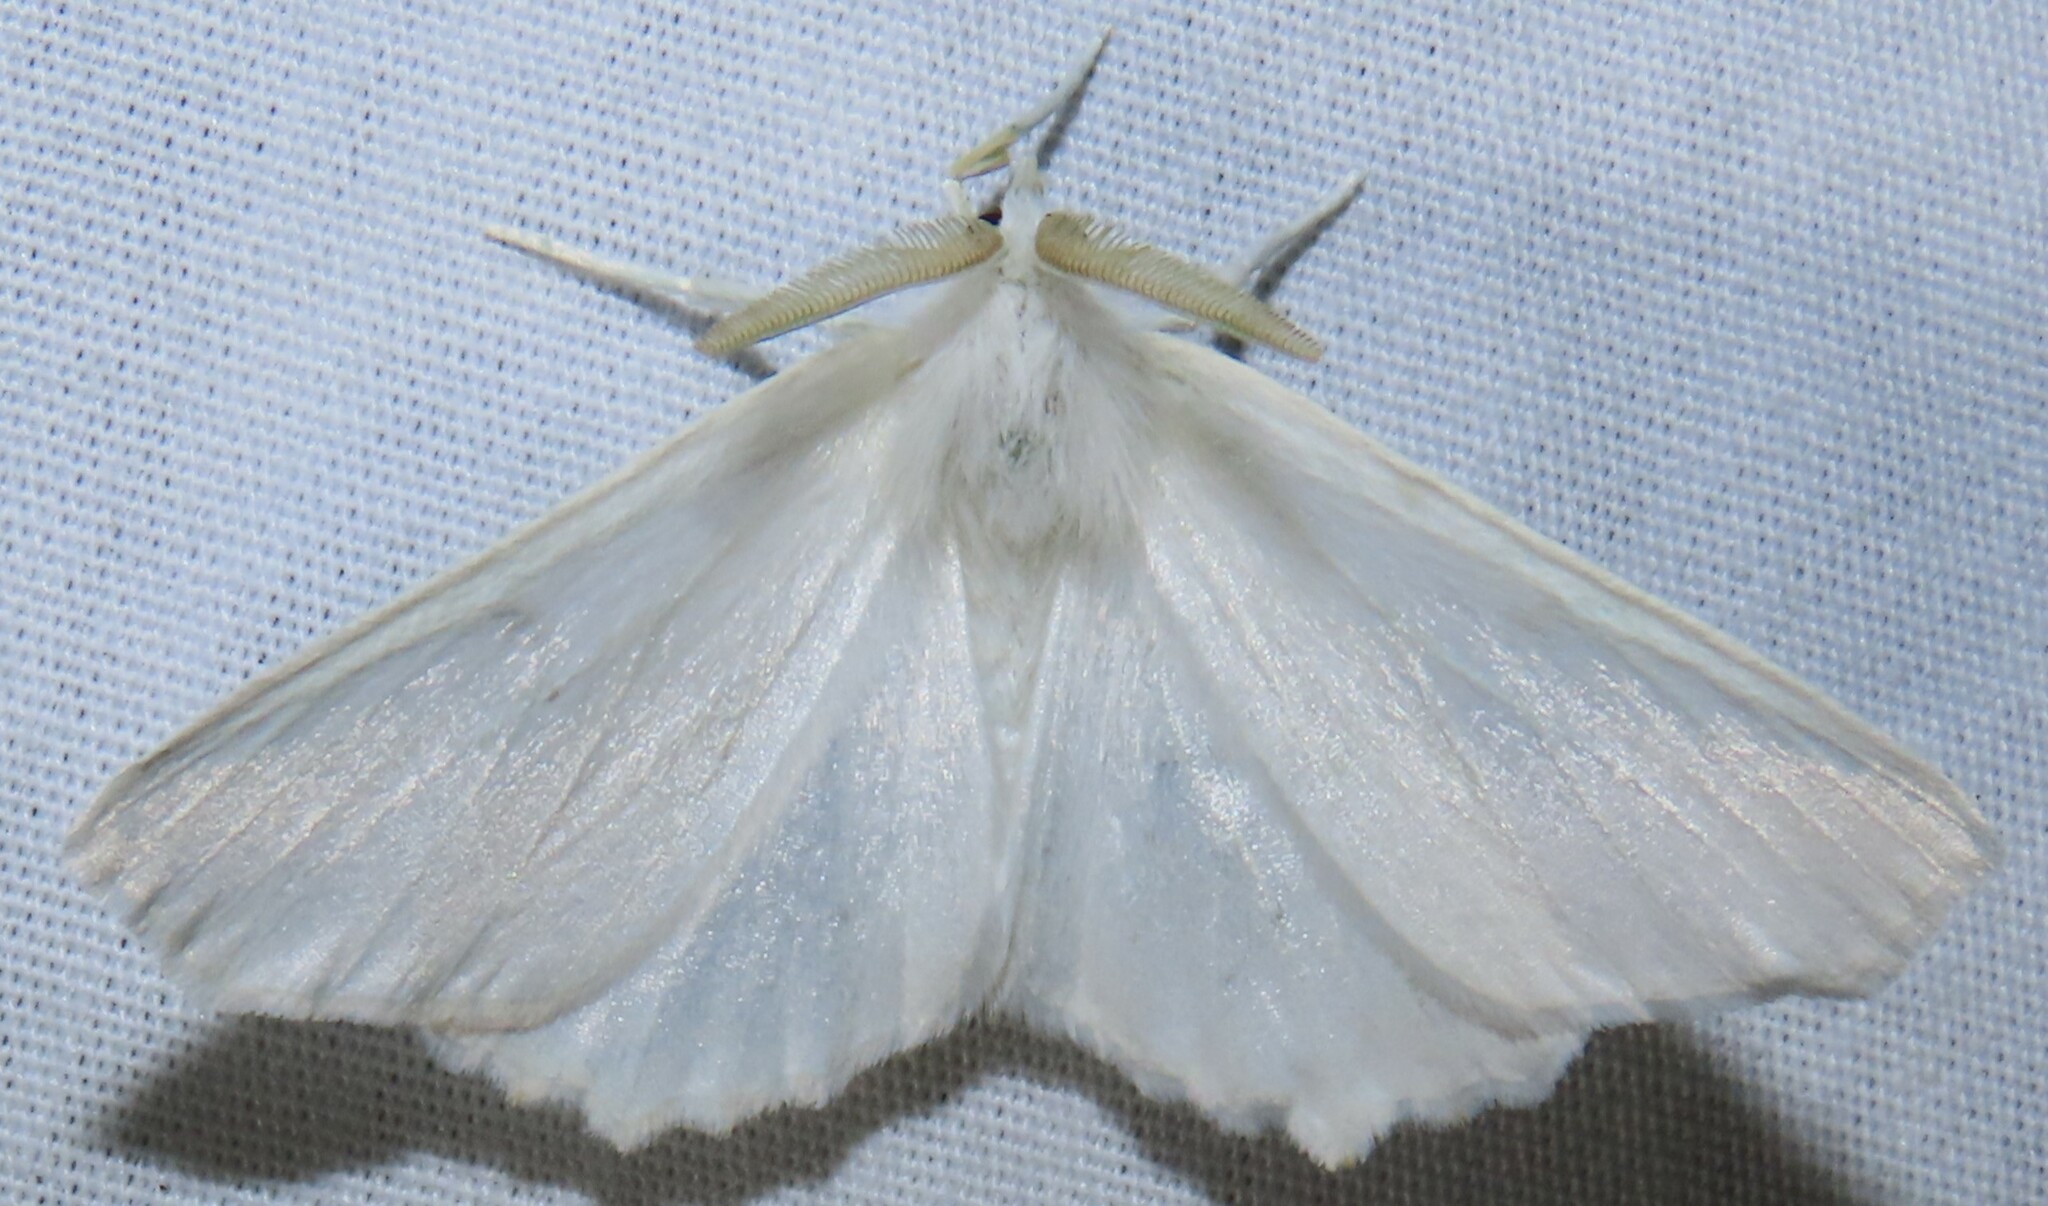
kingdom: Animalia
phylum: Arthropoda
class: Insecta
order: Lepidoptera
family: Geometridae
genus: Ennomos
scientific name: Ennomos subsignaria
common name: Elm spanworm
